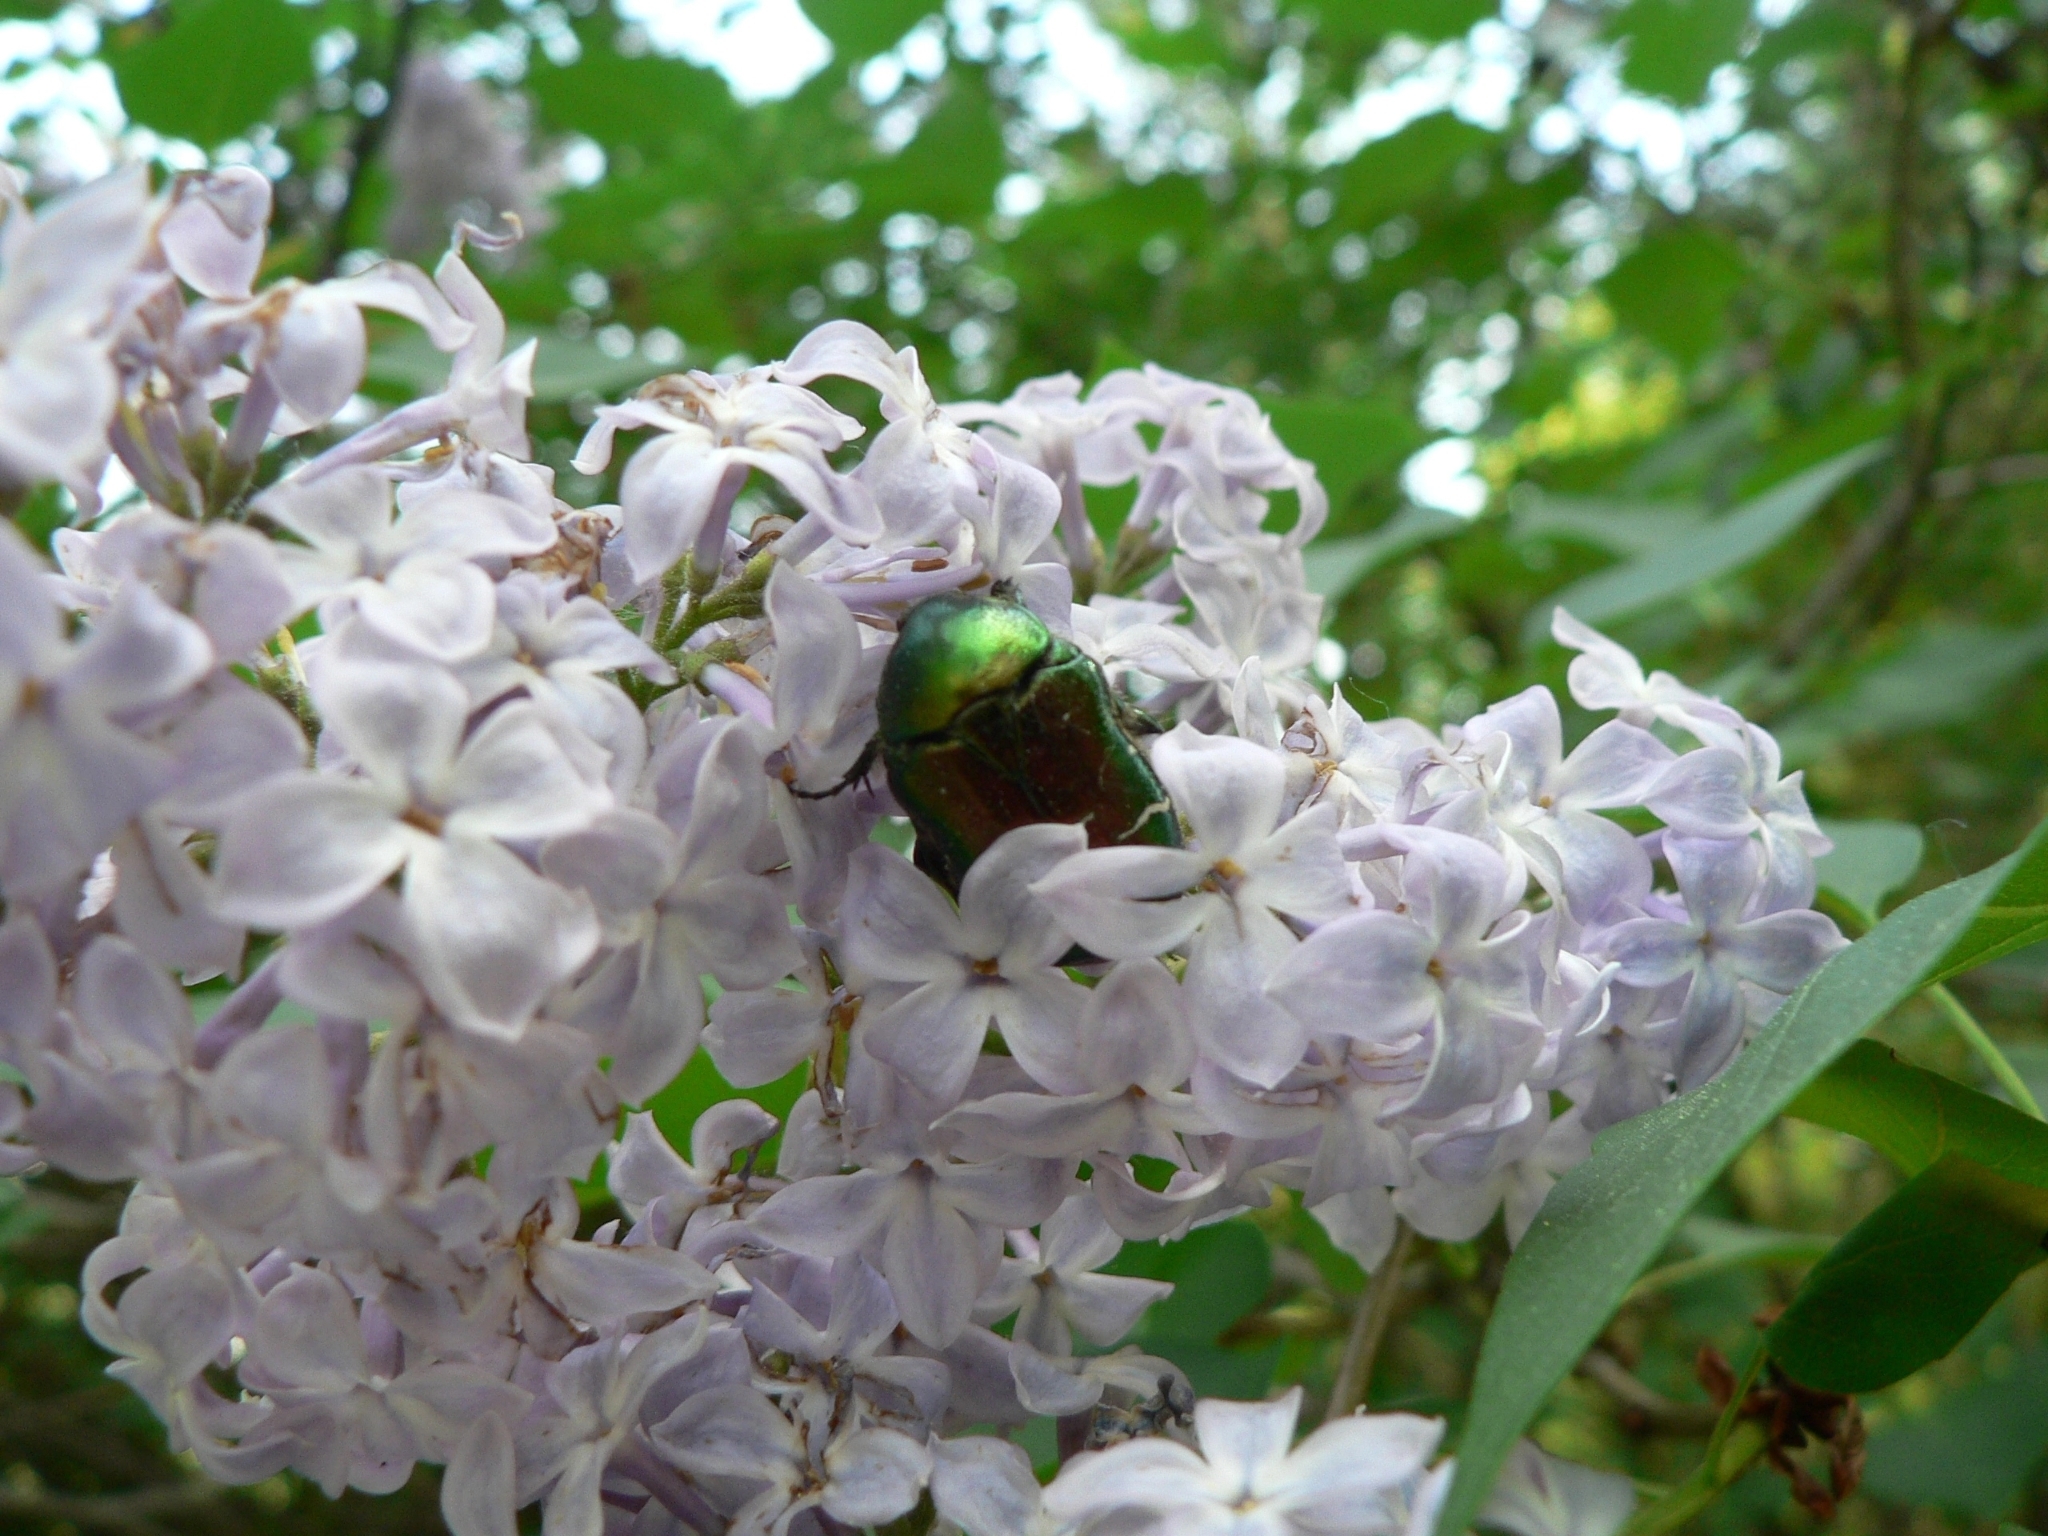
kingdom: Animalia
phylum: Arthropoda
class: Insecta
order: Coleoptera
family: Scarabaeidae
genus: Cetonia
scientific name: Cetonia aurata
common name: Rose chafer
